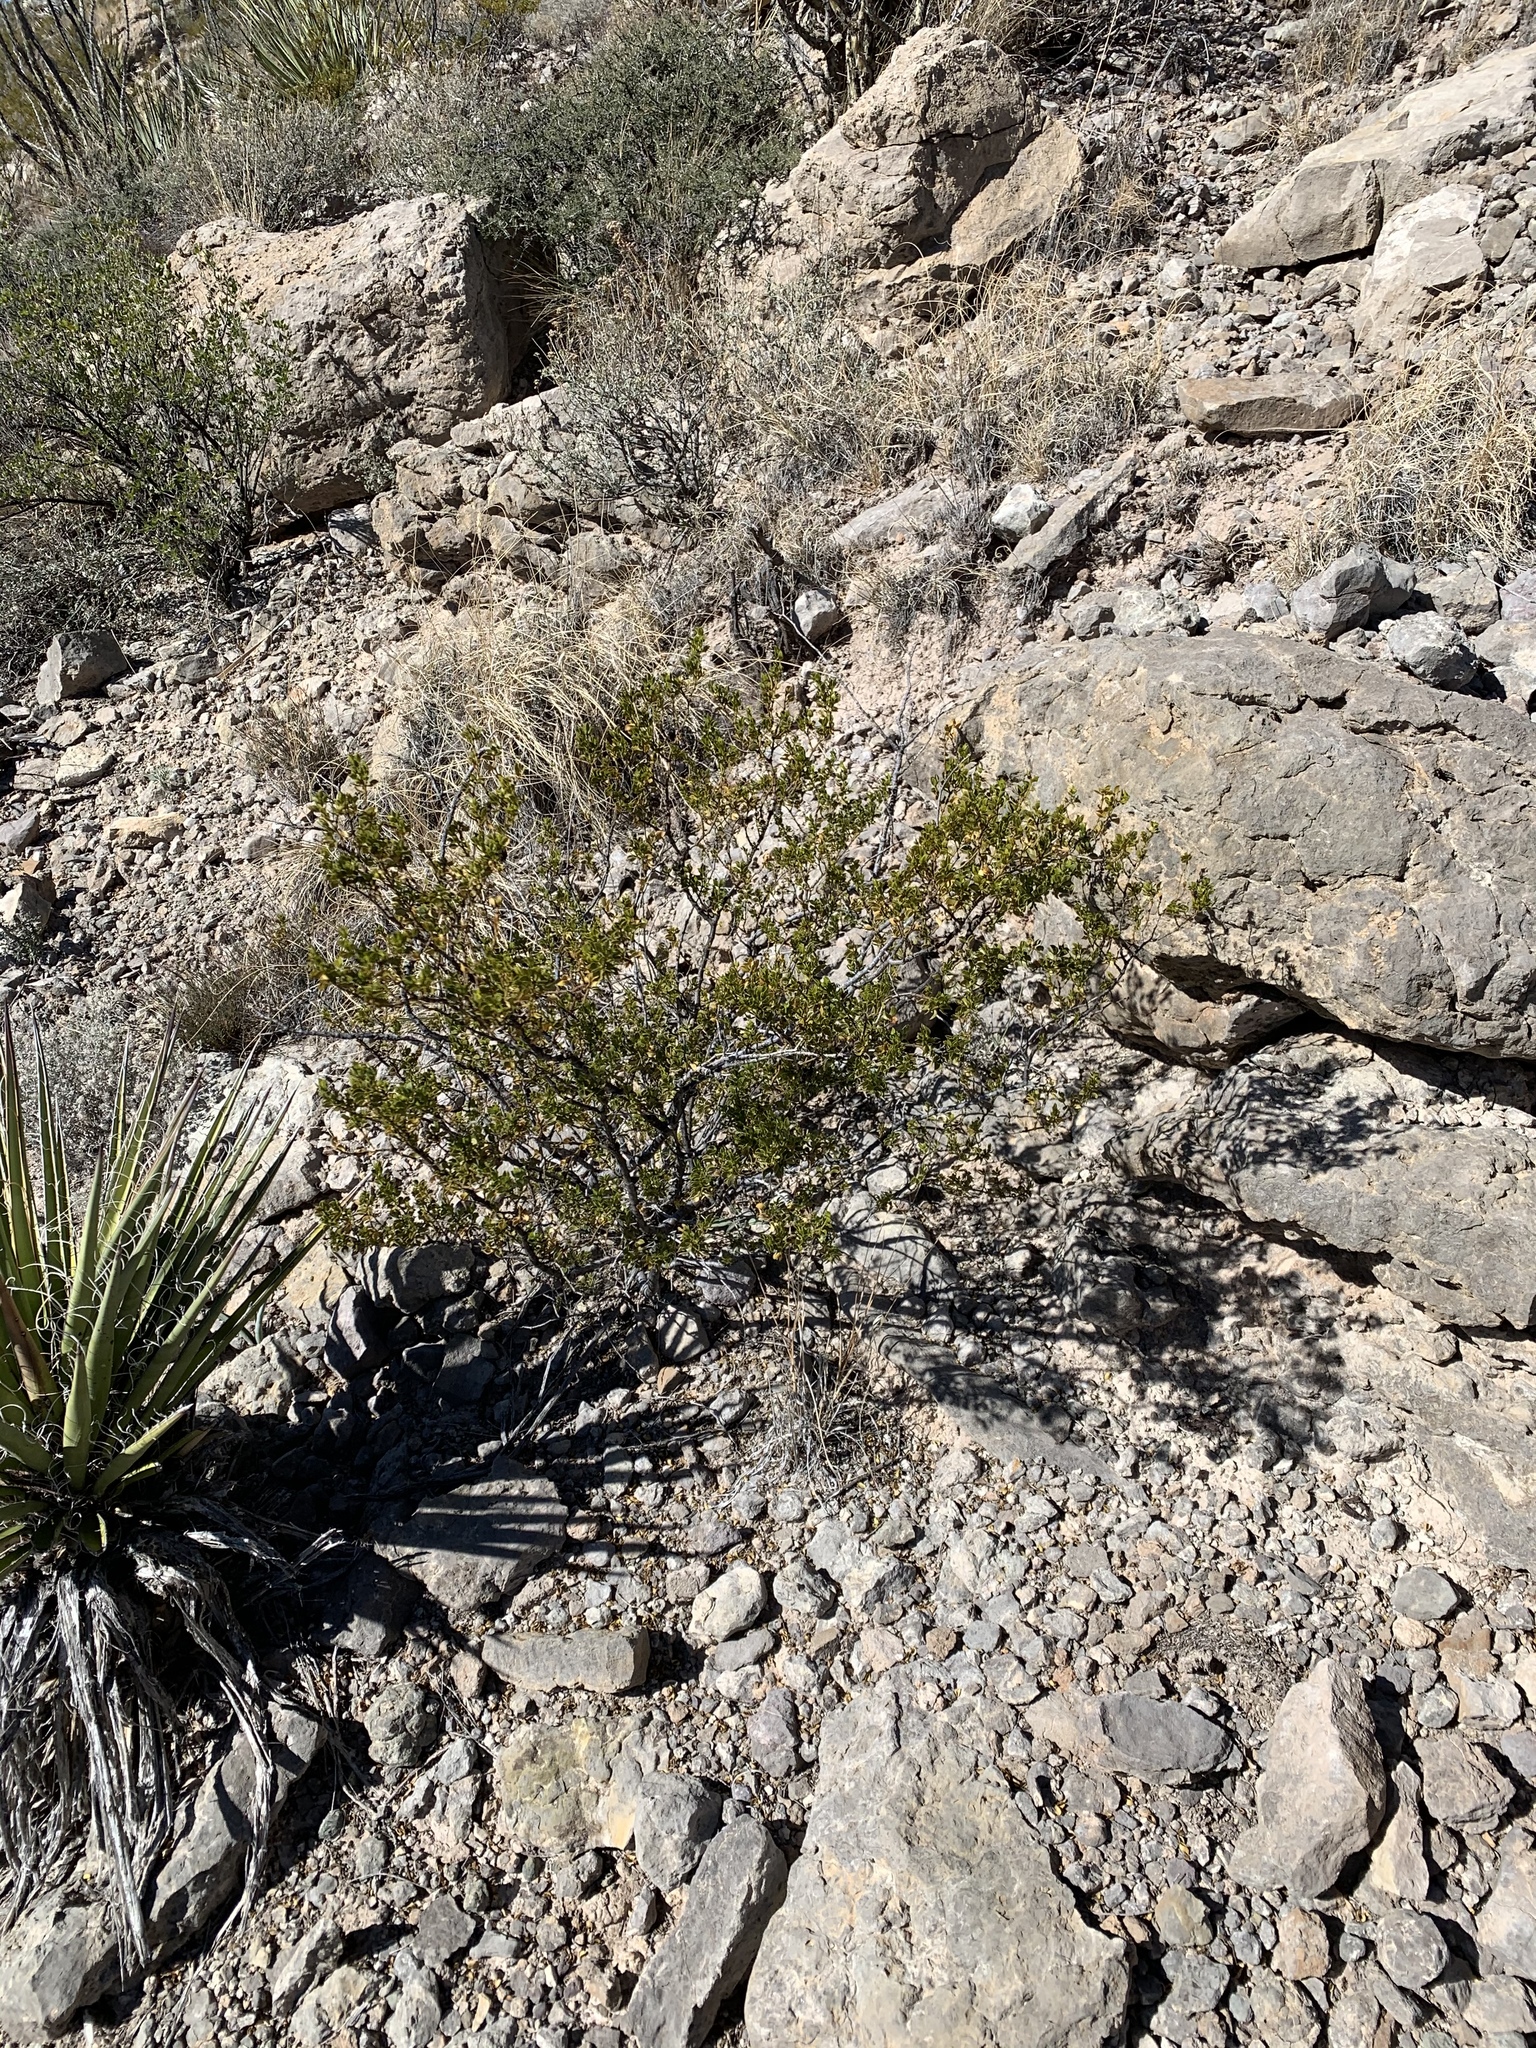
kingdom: Plantae
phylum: Tracheophyta
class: Magnoliopsida
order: Zygophyllales
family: Zygophyllaceae
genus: Larrea
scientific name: Larrea tridentata
